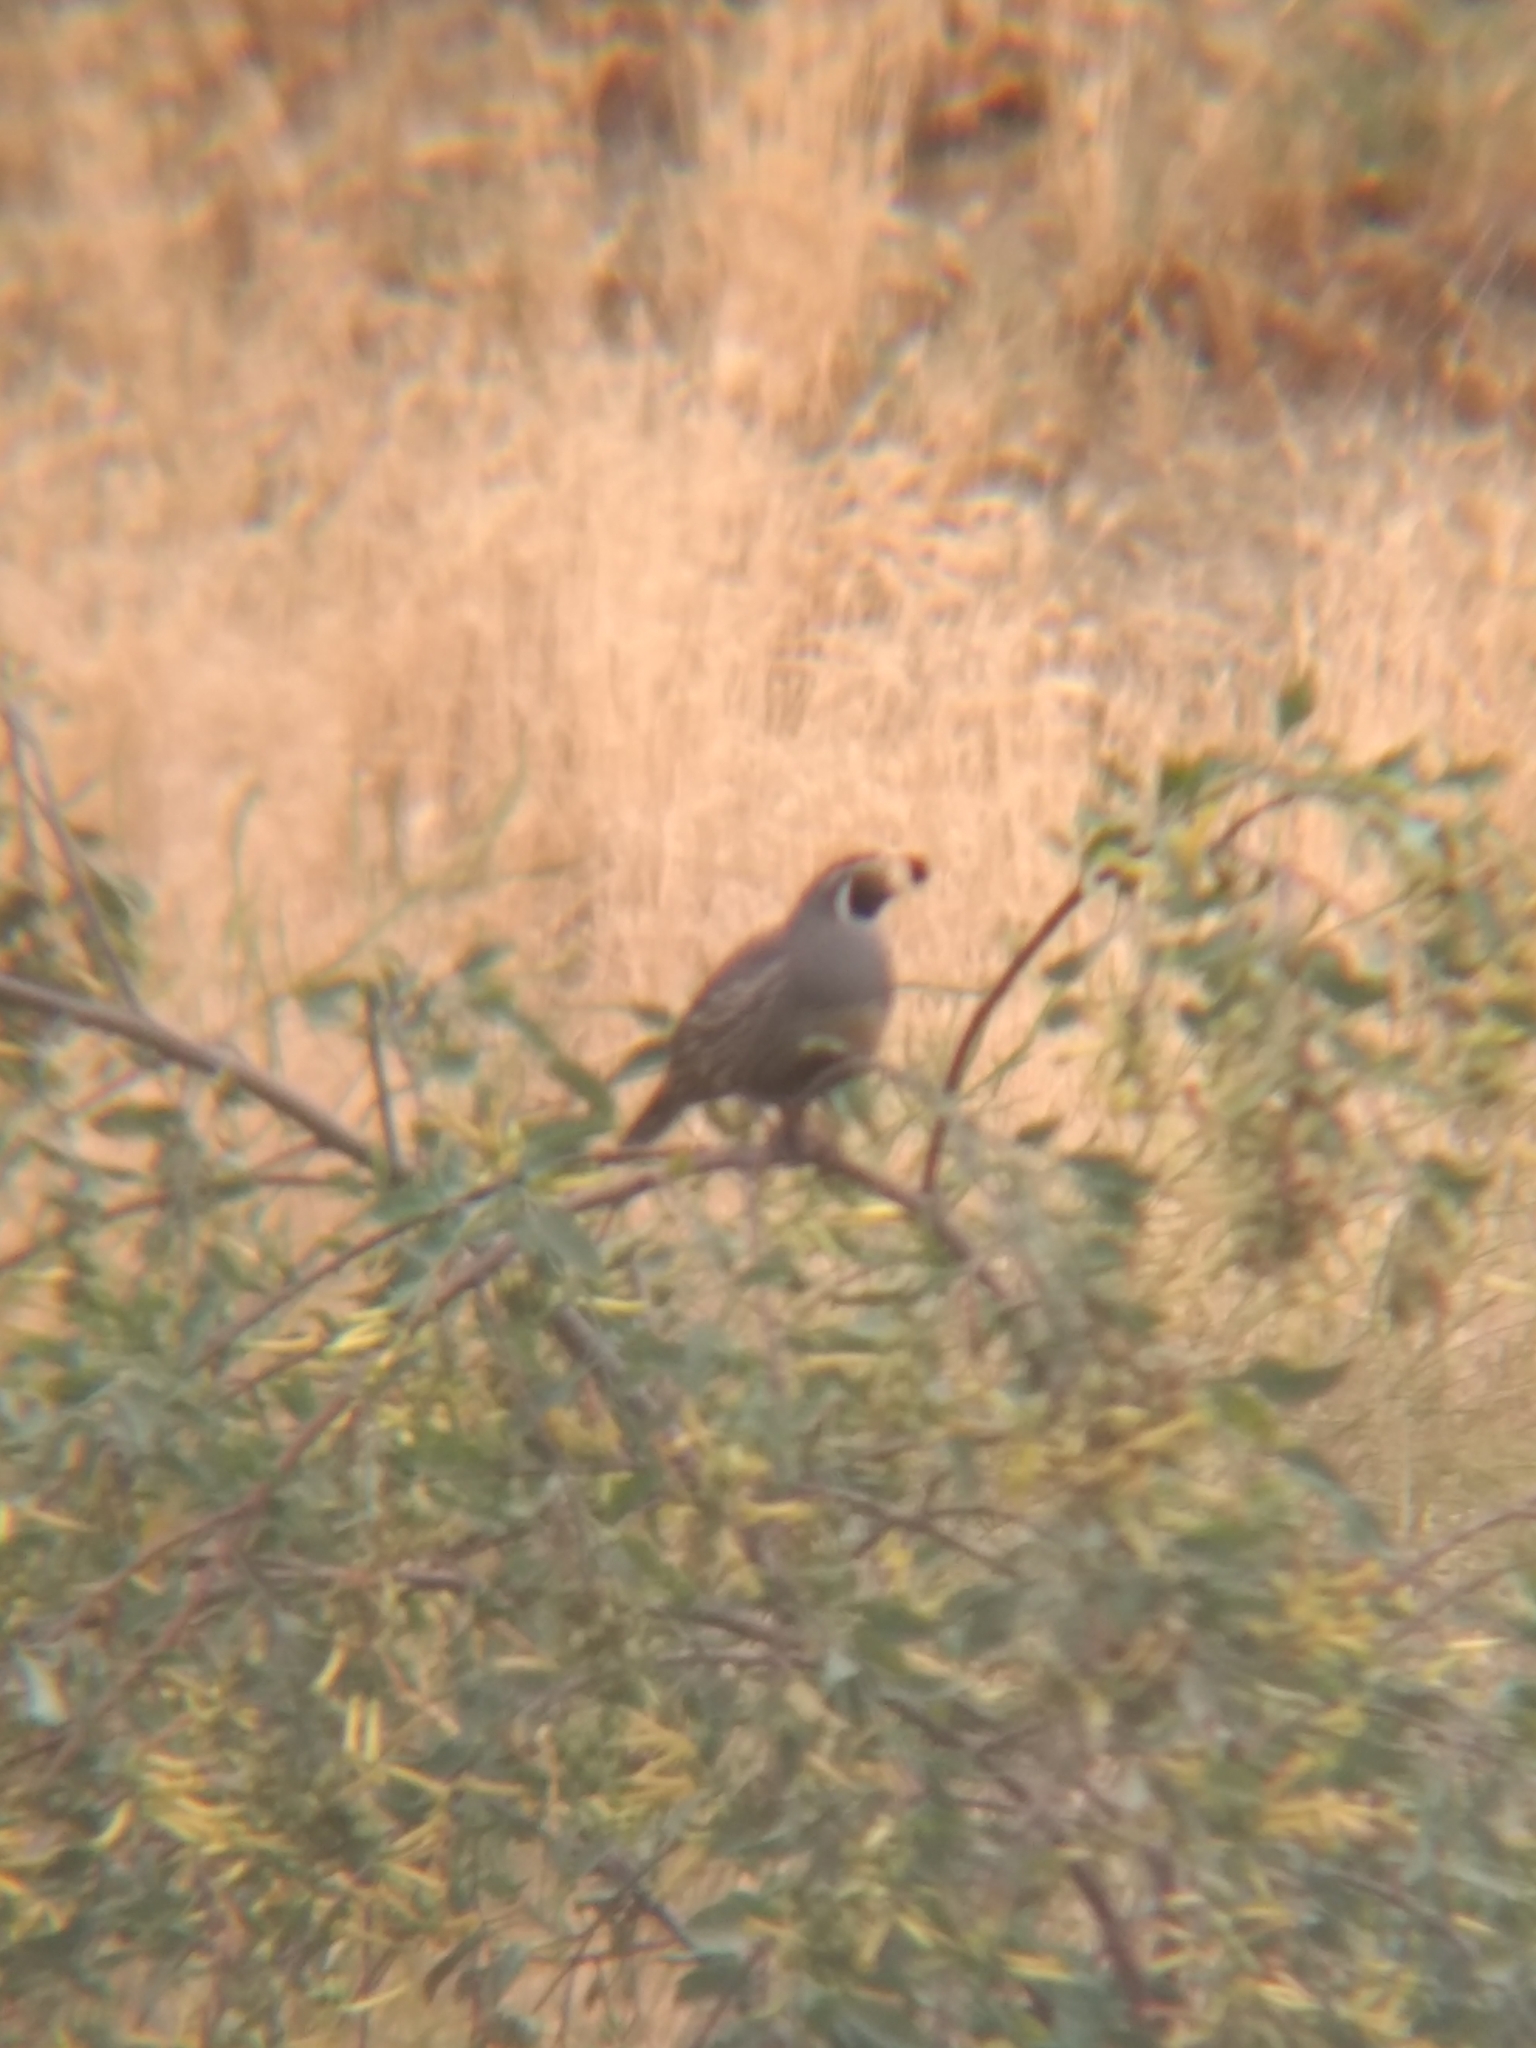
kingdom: Animalia
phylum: Chordata
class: Aves
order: Galliformes
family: Odontophoridae
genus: Callipepla
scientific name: Callipepla californica
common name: California quail
